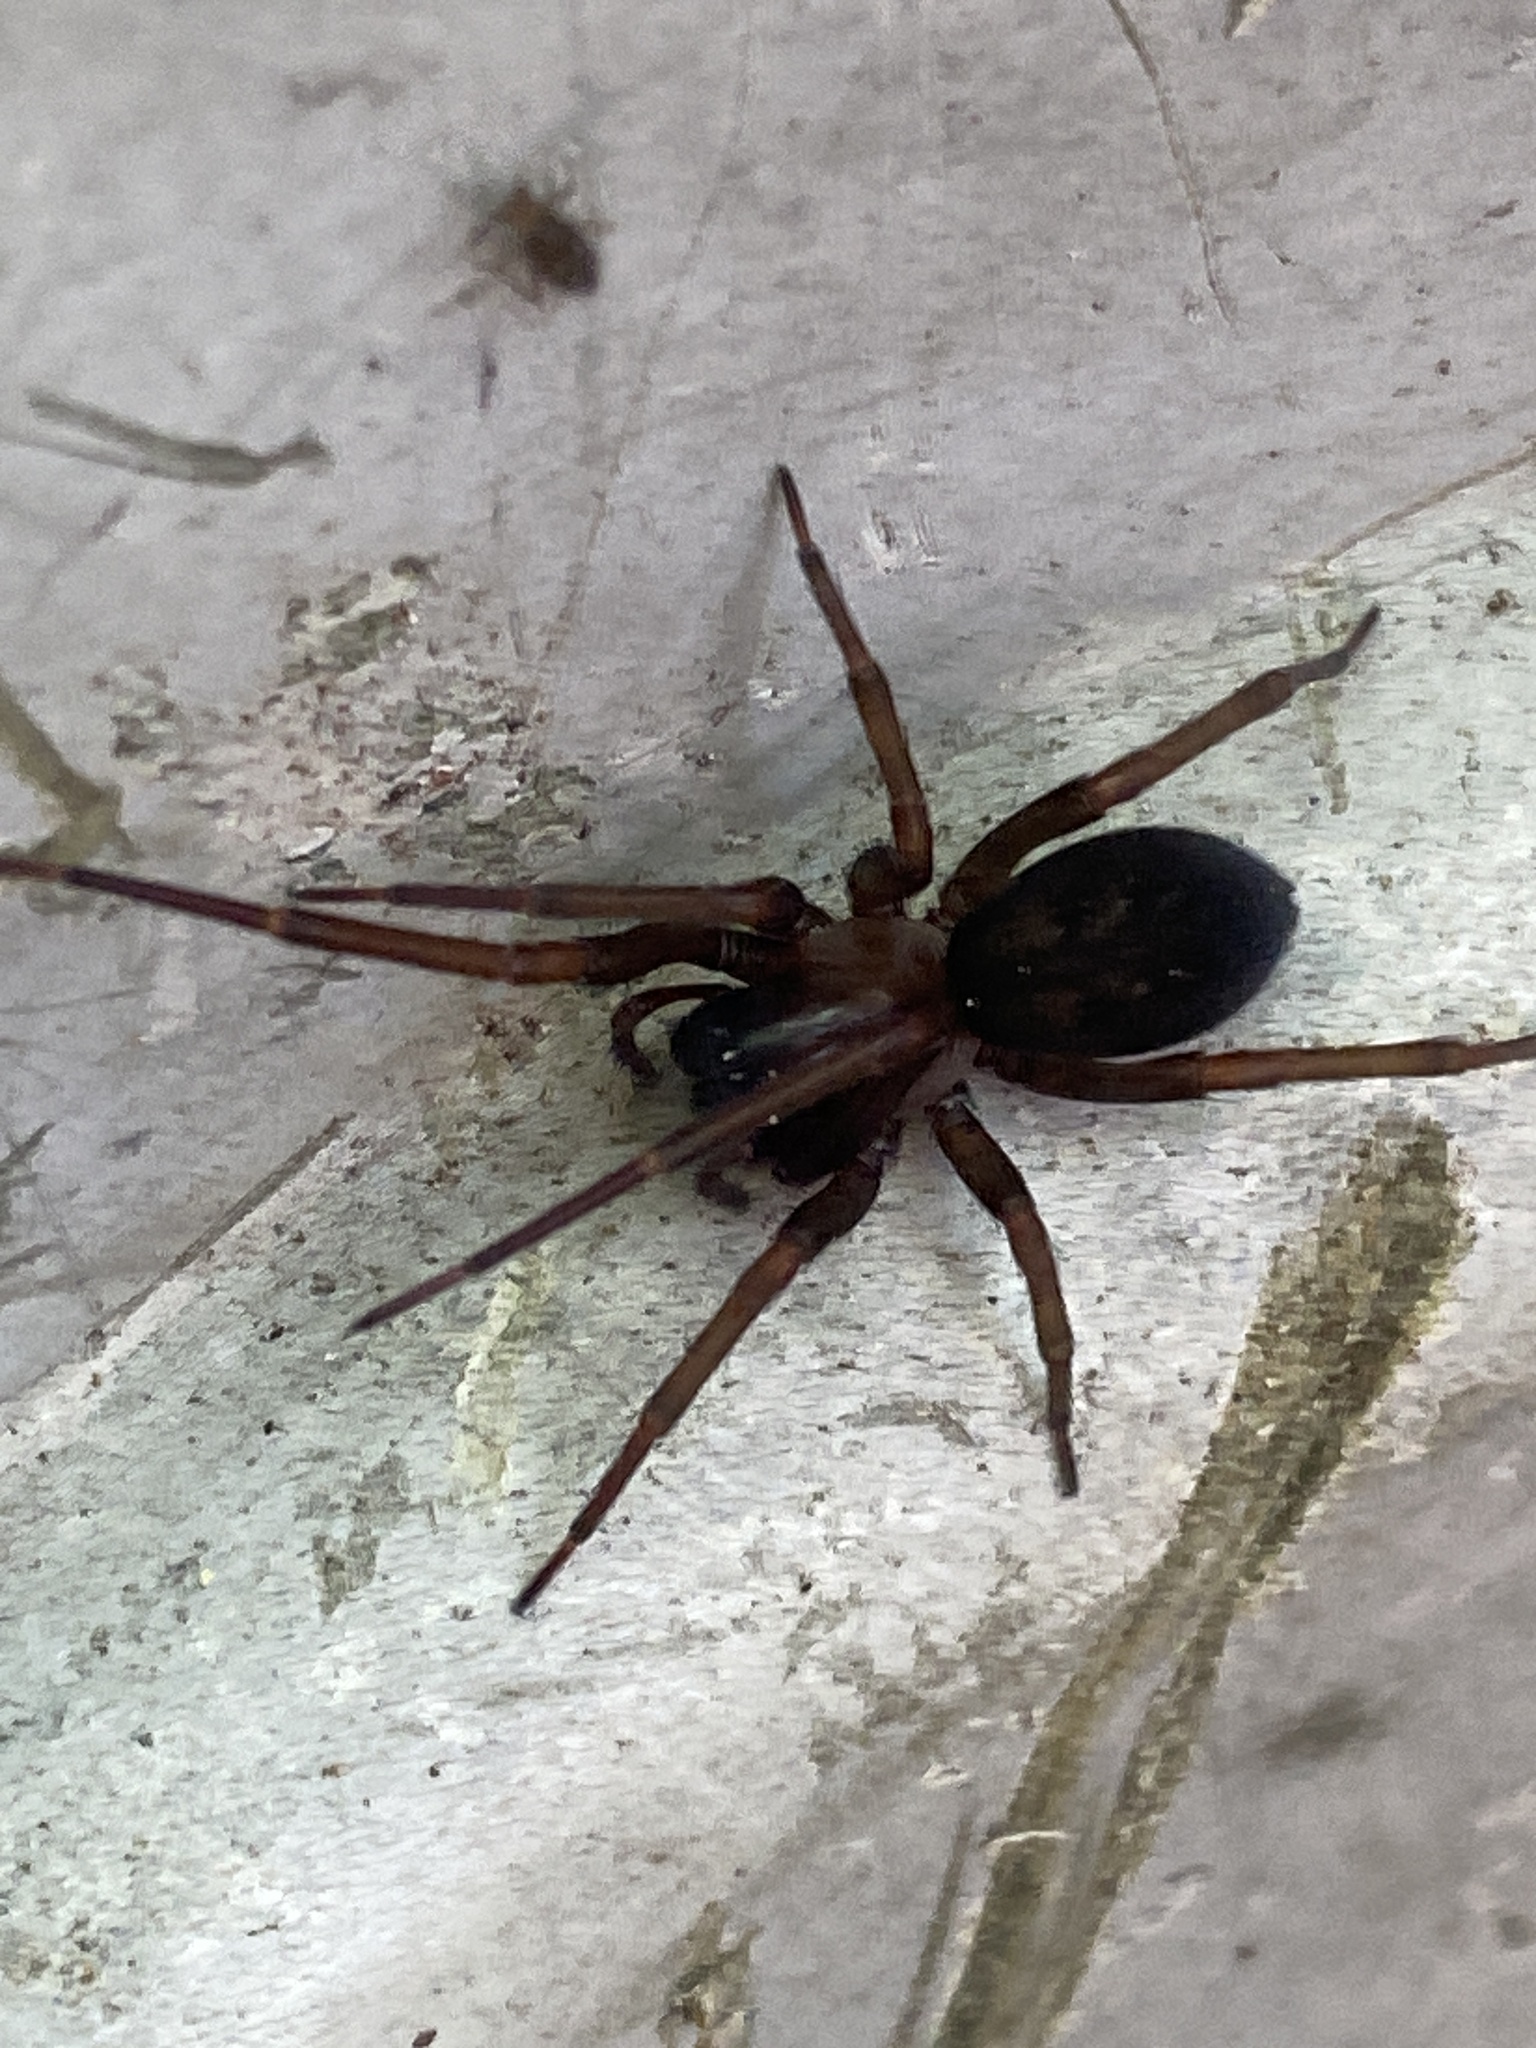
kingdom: Animalia
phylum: Arthropoda
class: Arachnida
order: Araneae
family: Desidae
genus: Metaltella
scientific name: Metaltella simoni
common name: Cribellate spider
